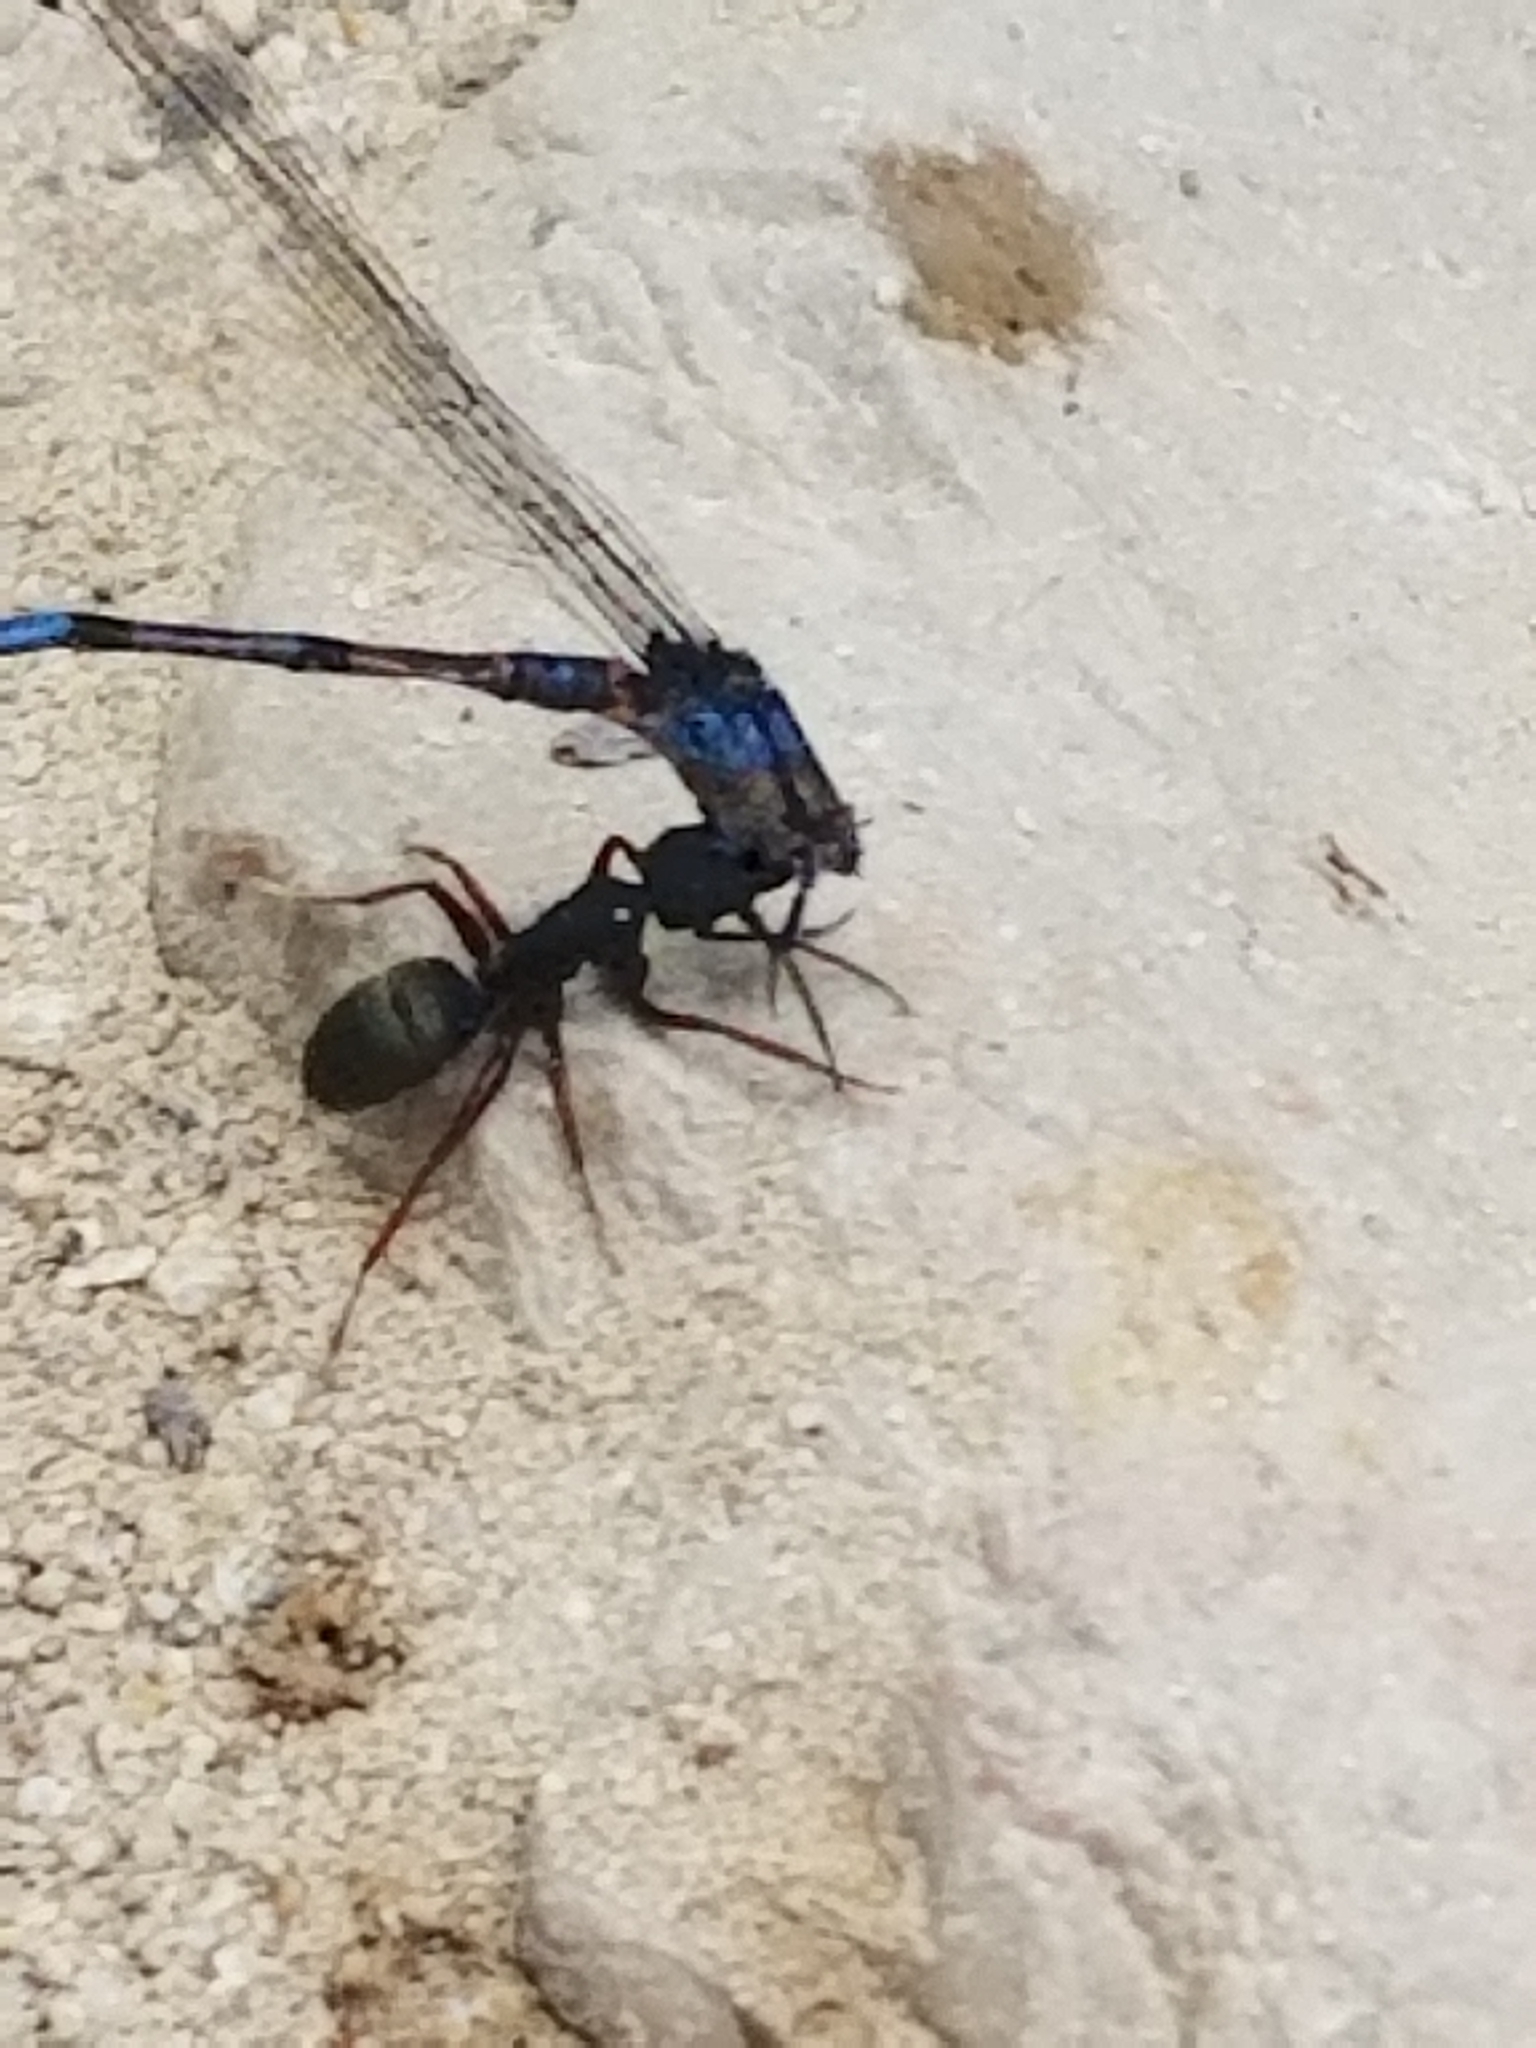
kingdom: Animalia
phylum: Arthropoda
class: Insecta
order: Hymenoptera
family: Formicidae
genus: Camponotus
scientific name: Camponotus modoc
